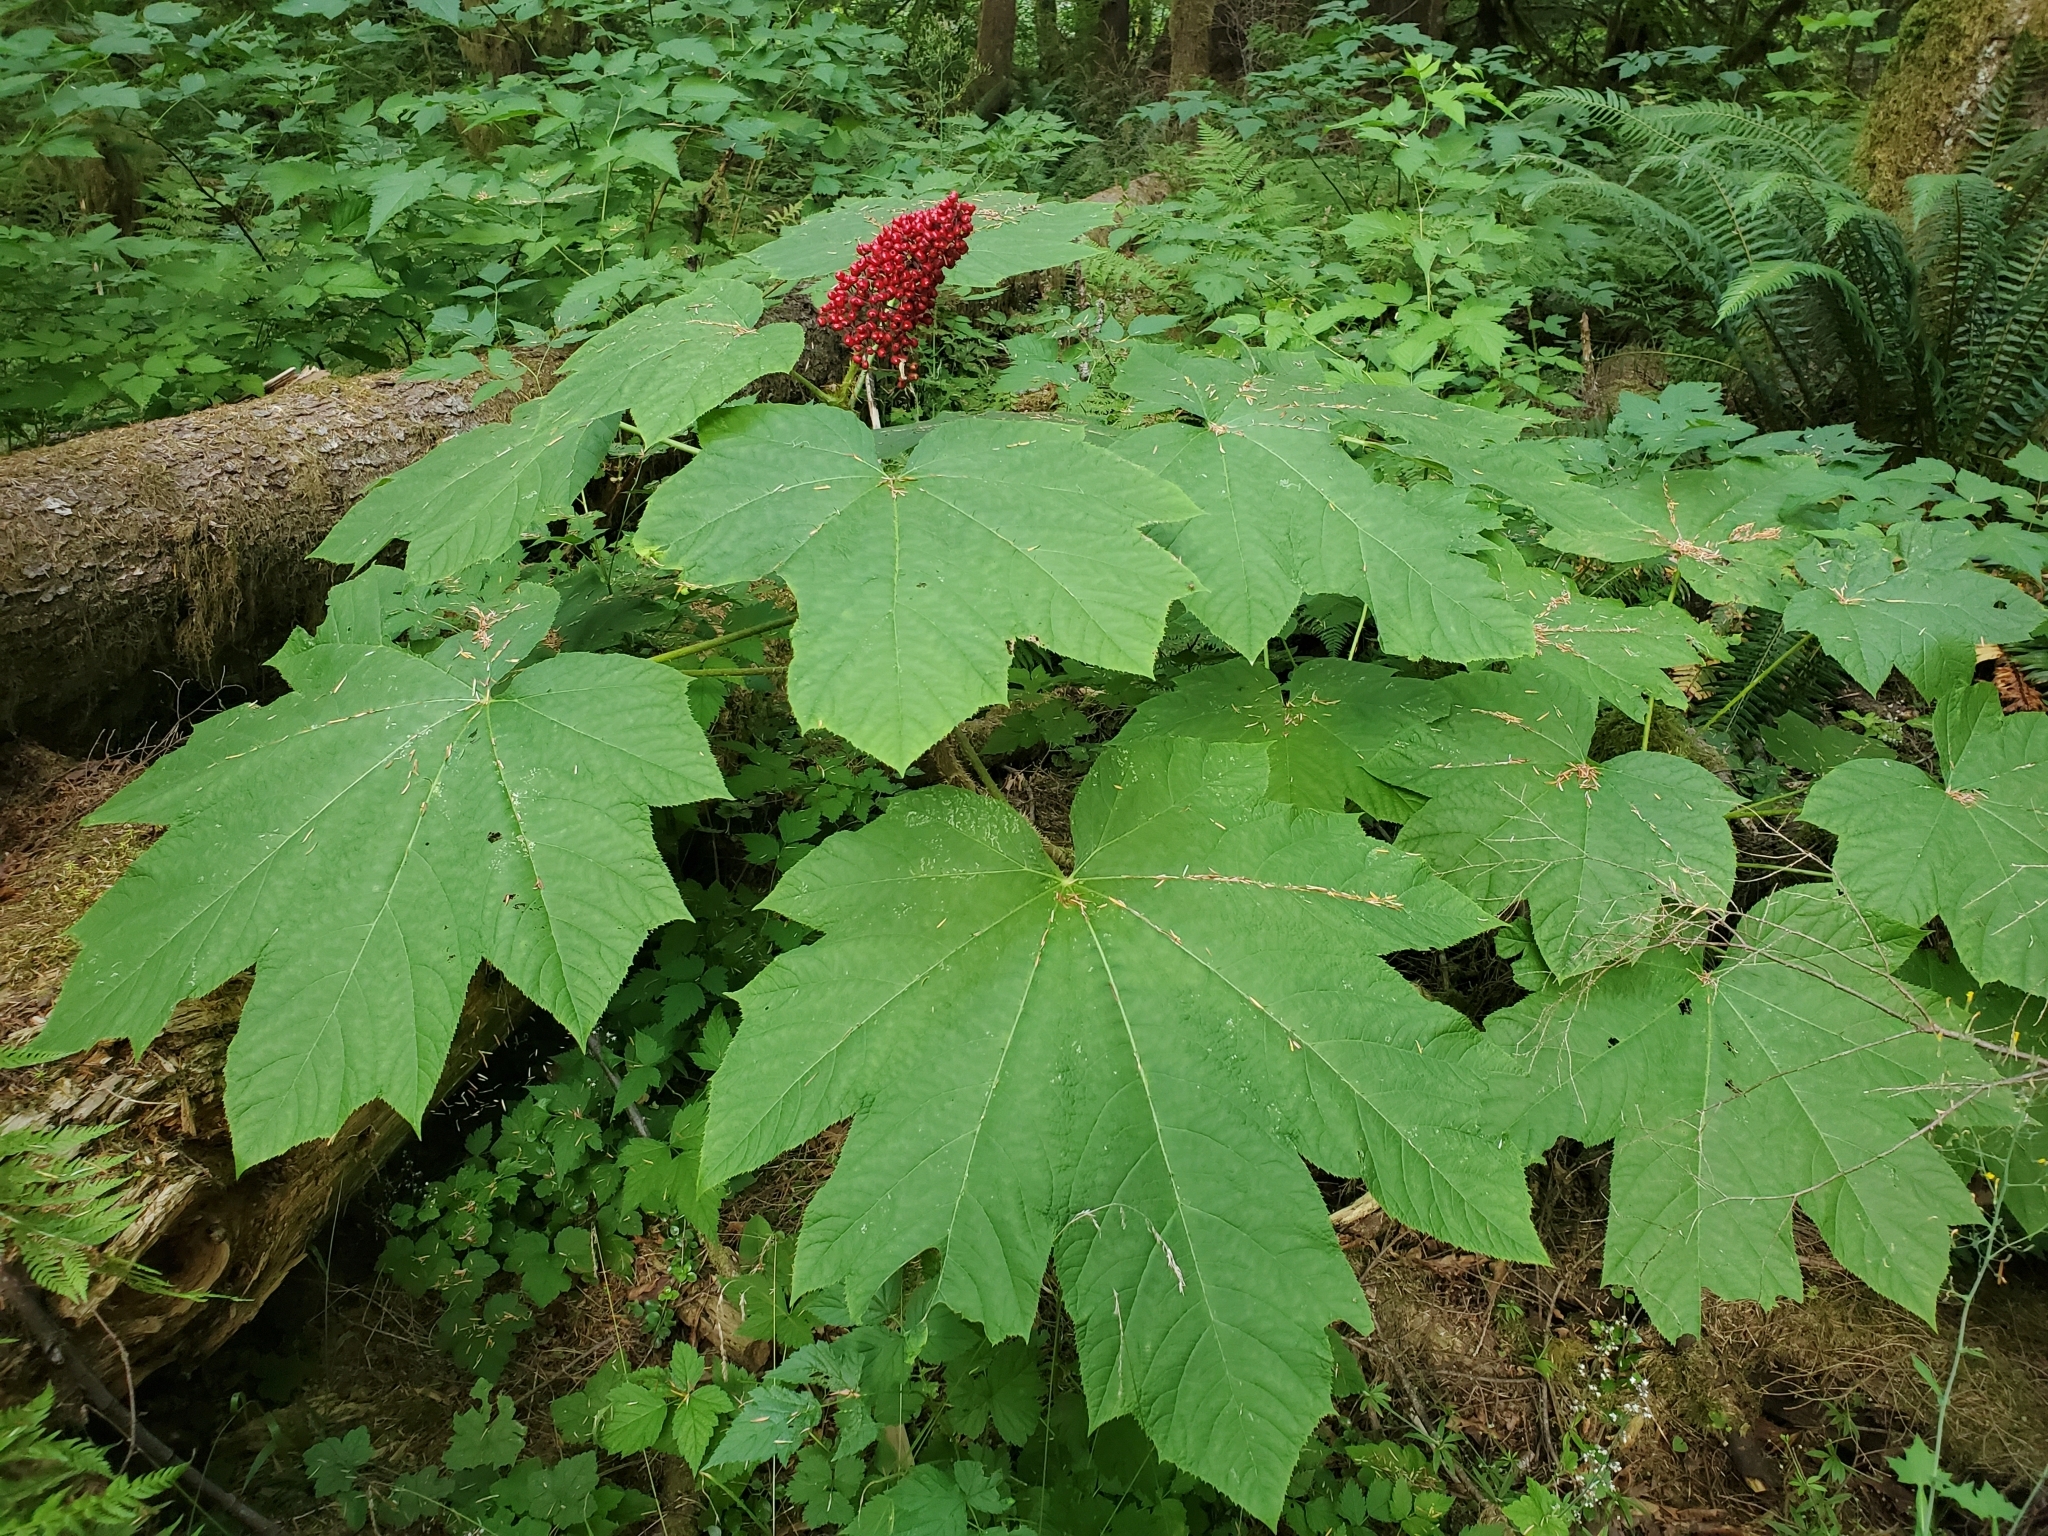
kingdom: Plantae
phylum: Tracheophyta
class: Magnoliopsida
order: Apiales
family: Araliaceae
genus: Oplopanax
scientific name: Oplopanax horridus
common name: Devil's walking-stick
